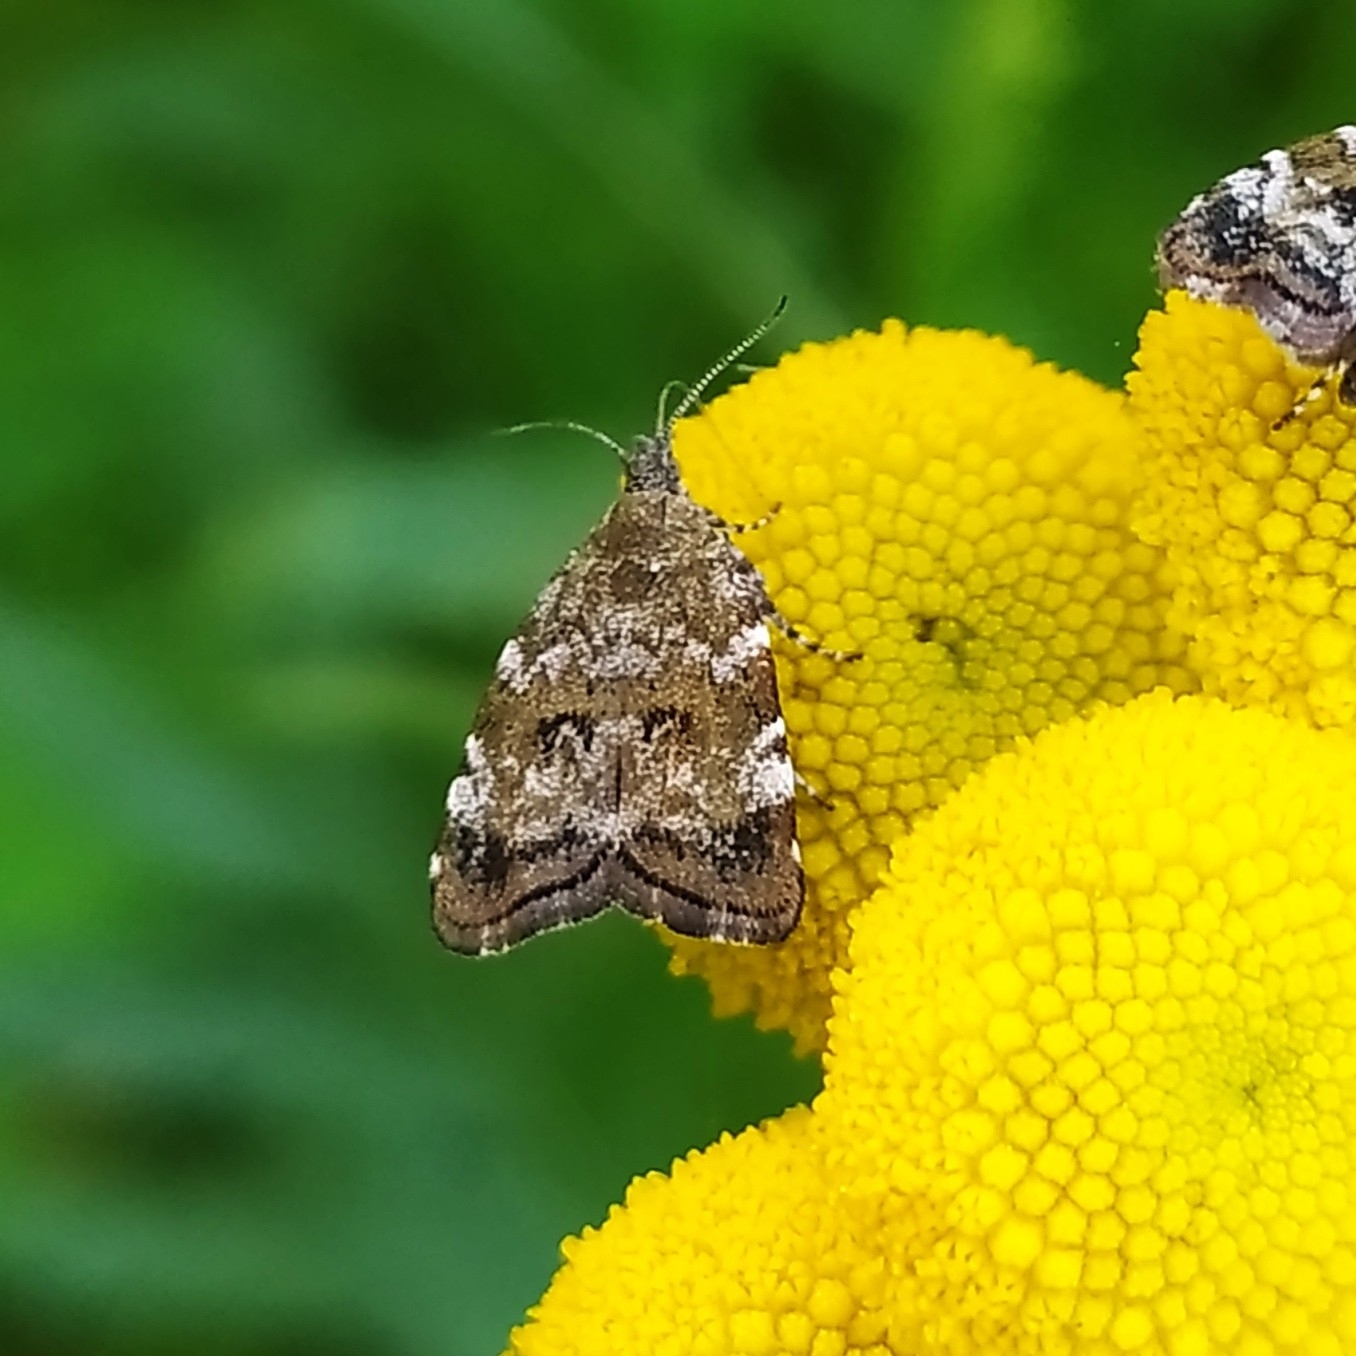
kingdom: Animalia
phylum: Arthropoda
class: Insecta
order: Lepidoptera
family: Choreutidae
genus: Choreutis
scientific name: Choreutis diana
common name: Inverness twitcher
